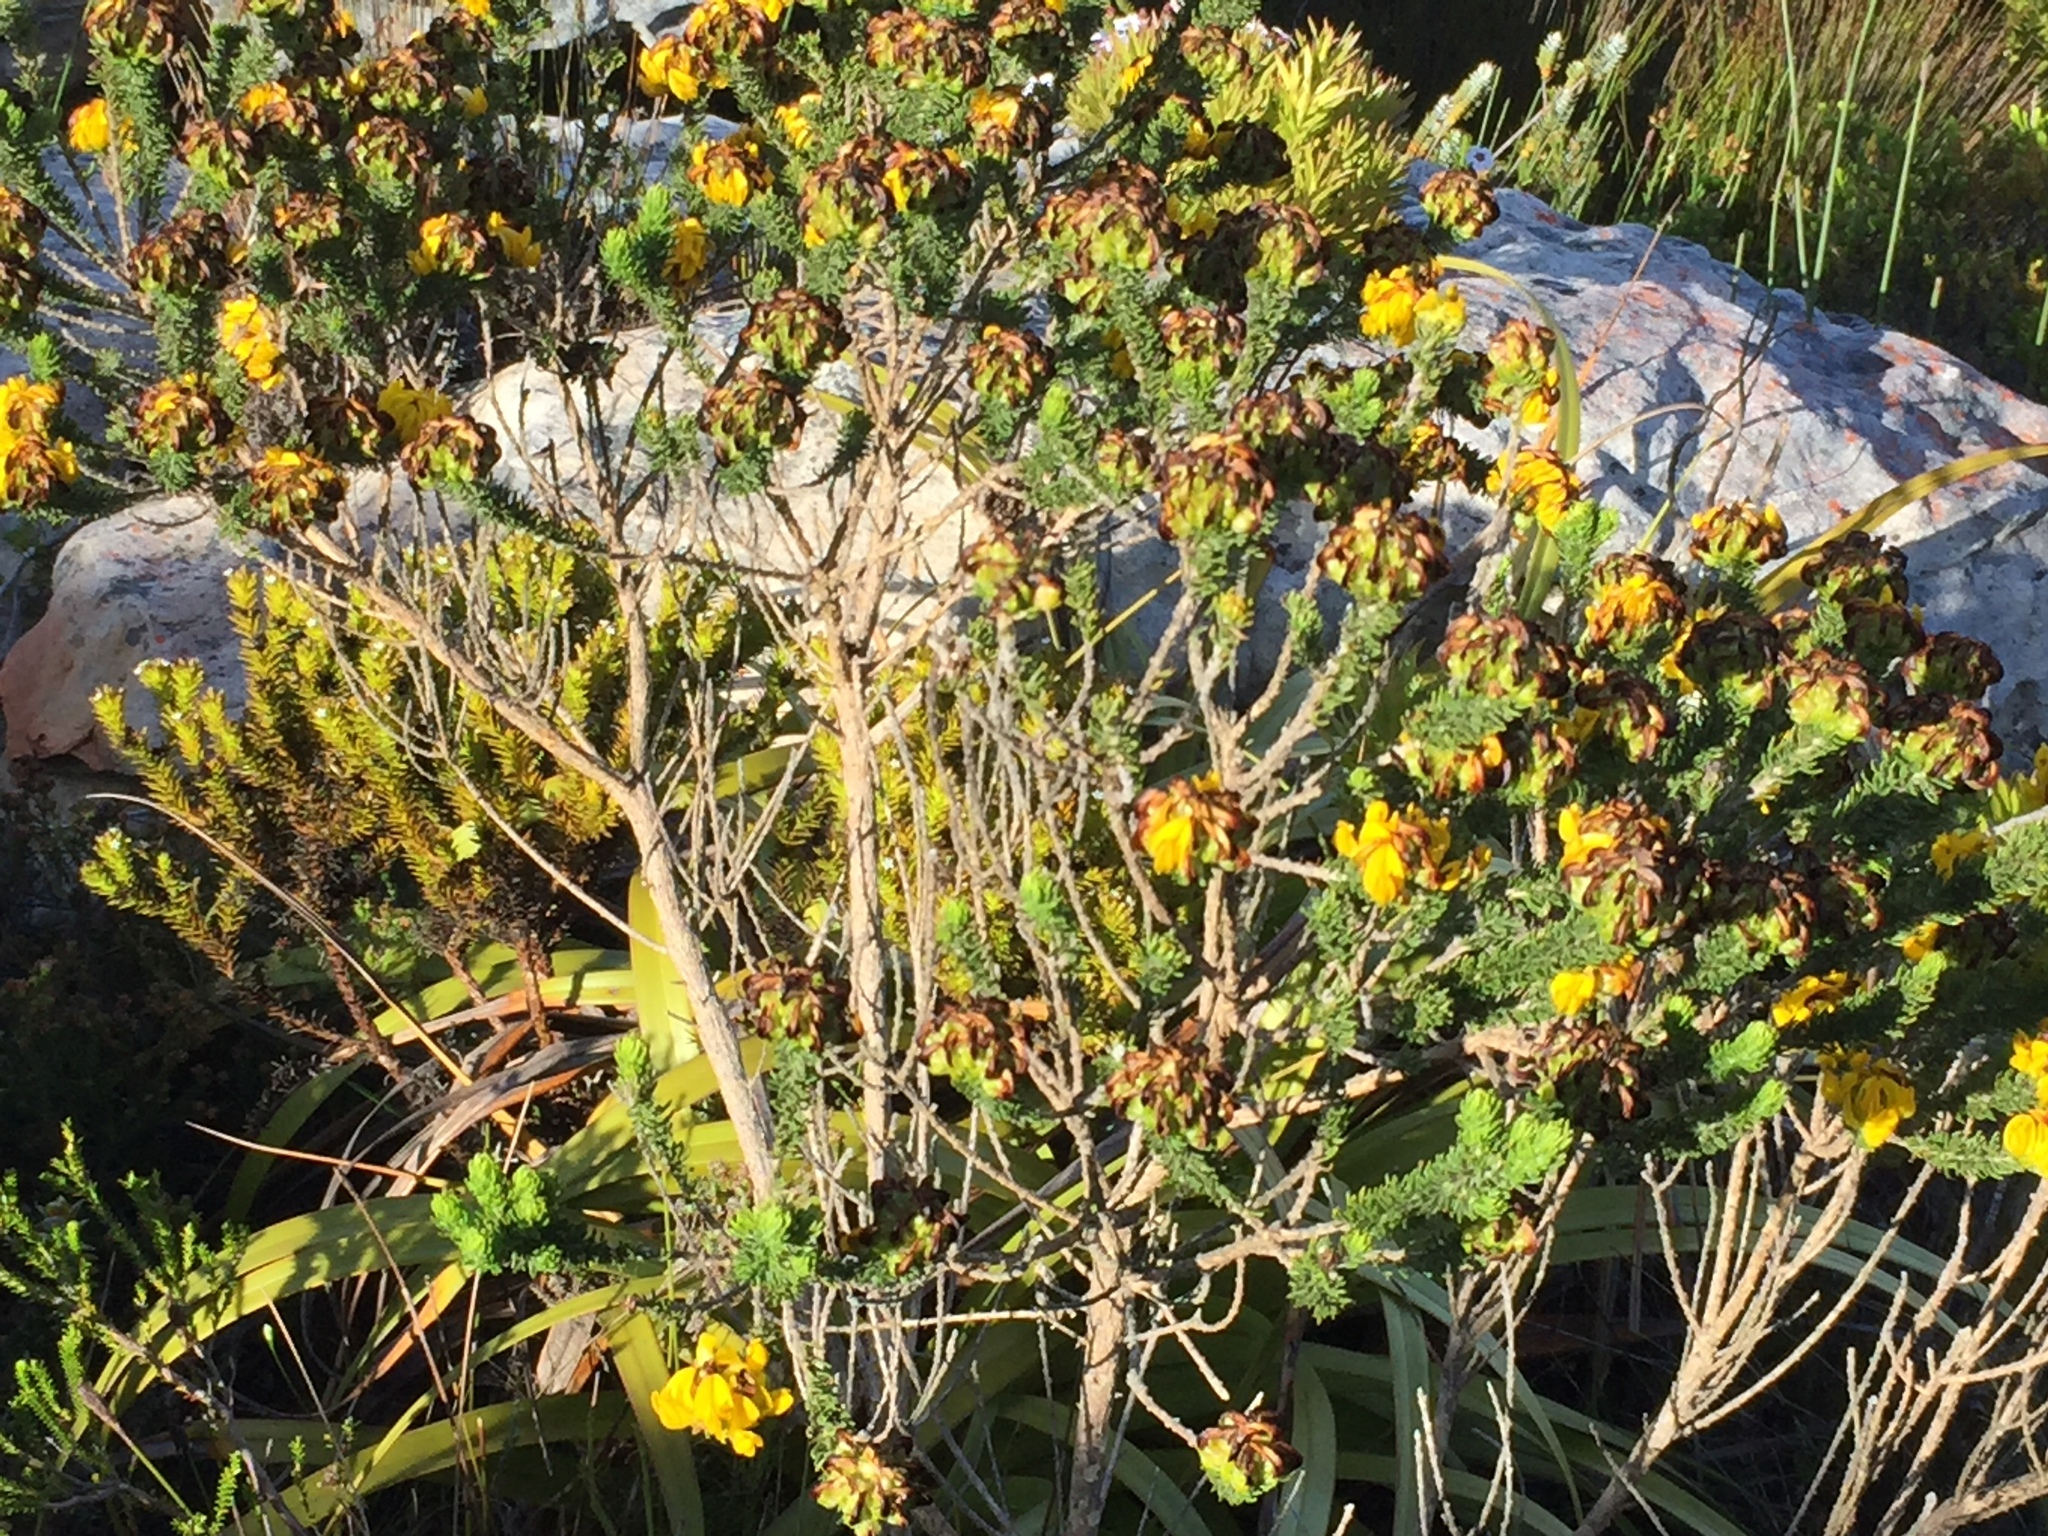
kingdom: Plantae
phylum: Tracheophyta
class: Magnoliopsida
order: Fabales
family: Fabaceae
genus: Aspalathus
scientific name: Aspalathus capitata
